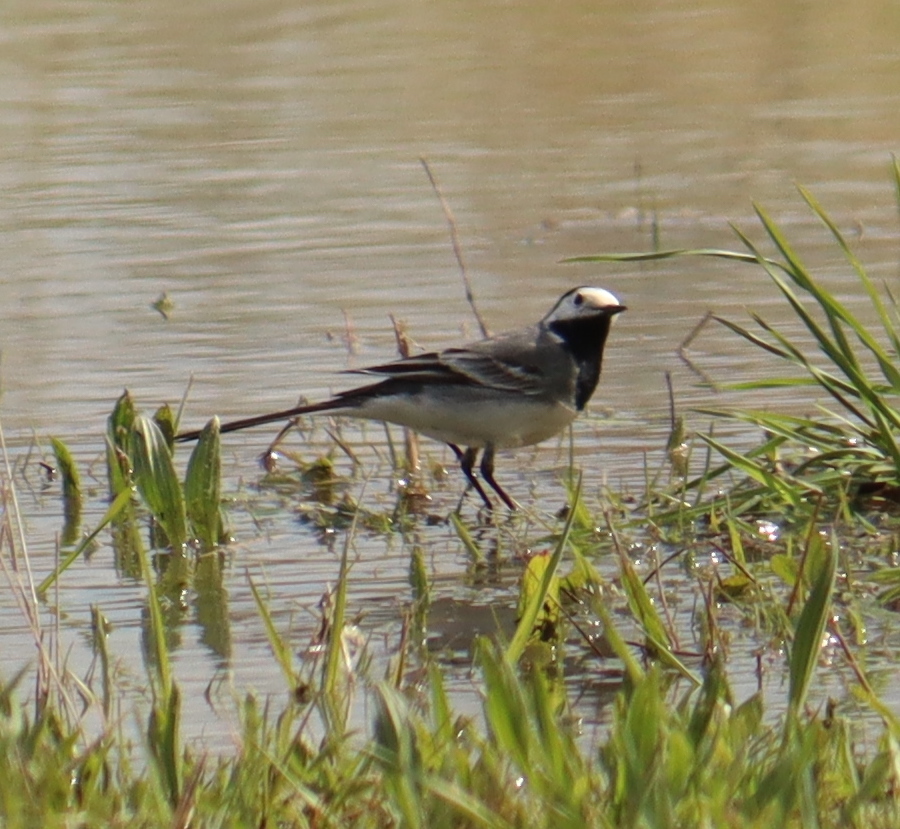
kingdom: Animalia
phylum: Chordata
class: Aves
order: Passeriformes
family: Motacillidae
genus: Motacilla
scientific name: Motacilla alba
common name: White wagtail
